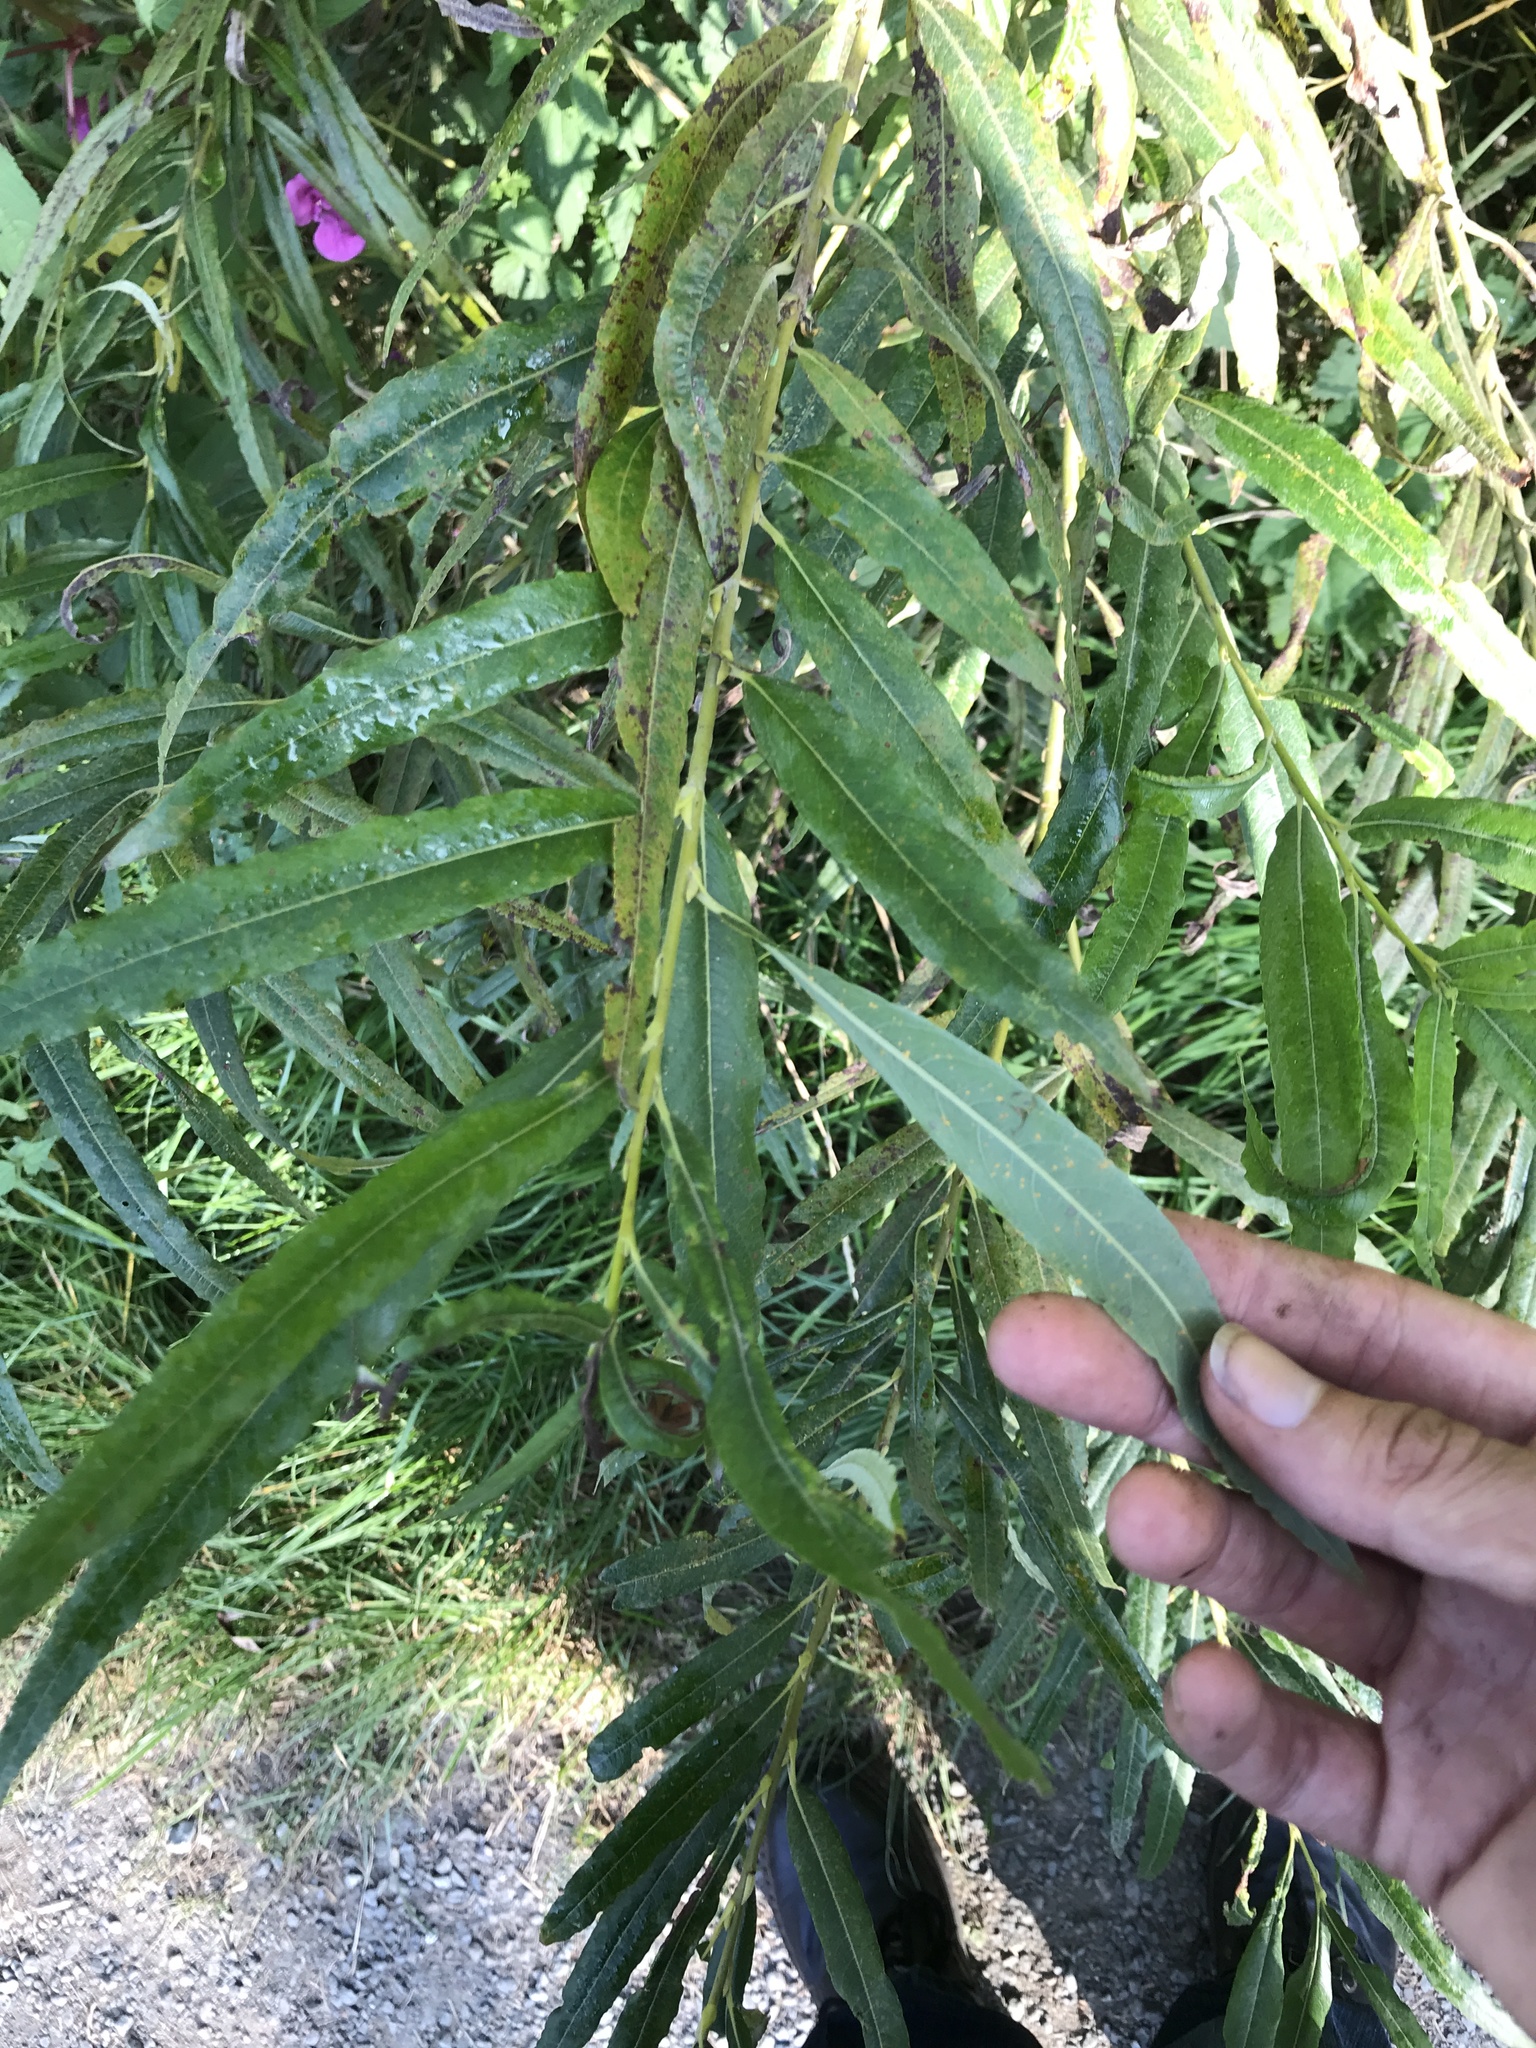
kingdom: Plantae
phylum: Tracheophyta
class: Magnoliopsida
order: Malpighiales
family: Salicaceae
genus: Salix
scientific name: Salix viminalis
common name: Osier
